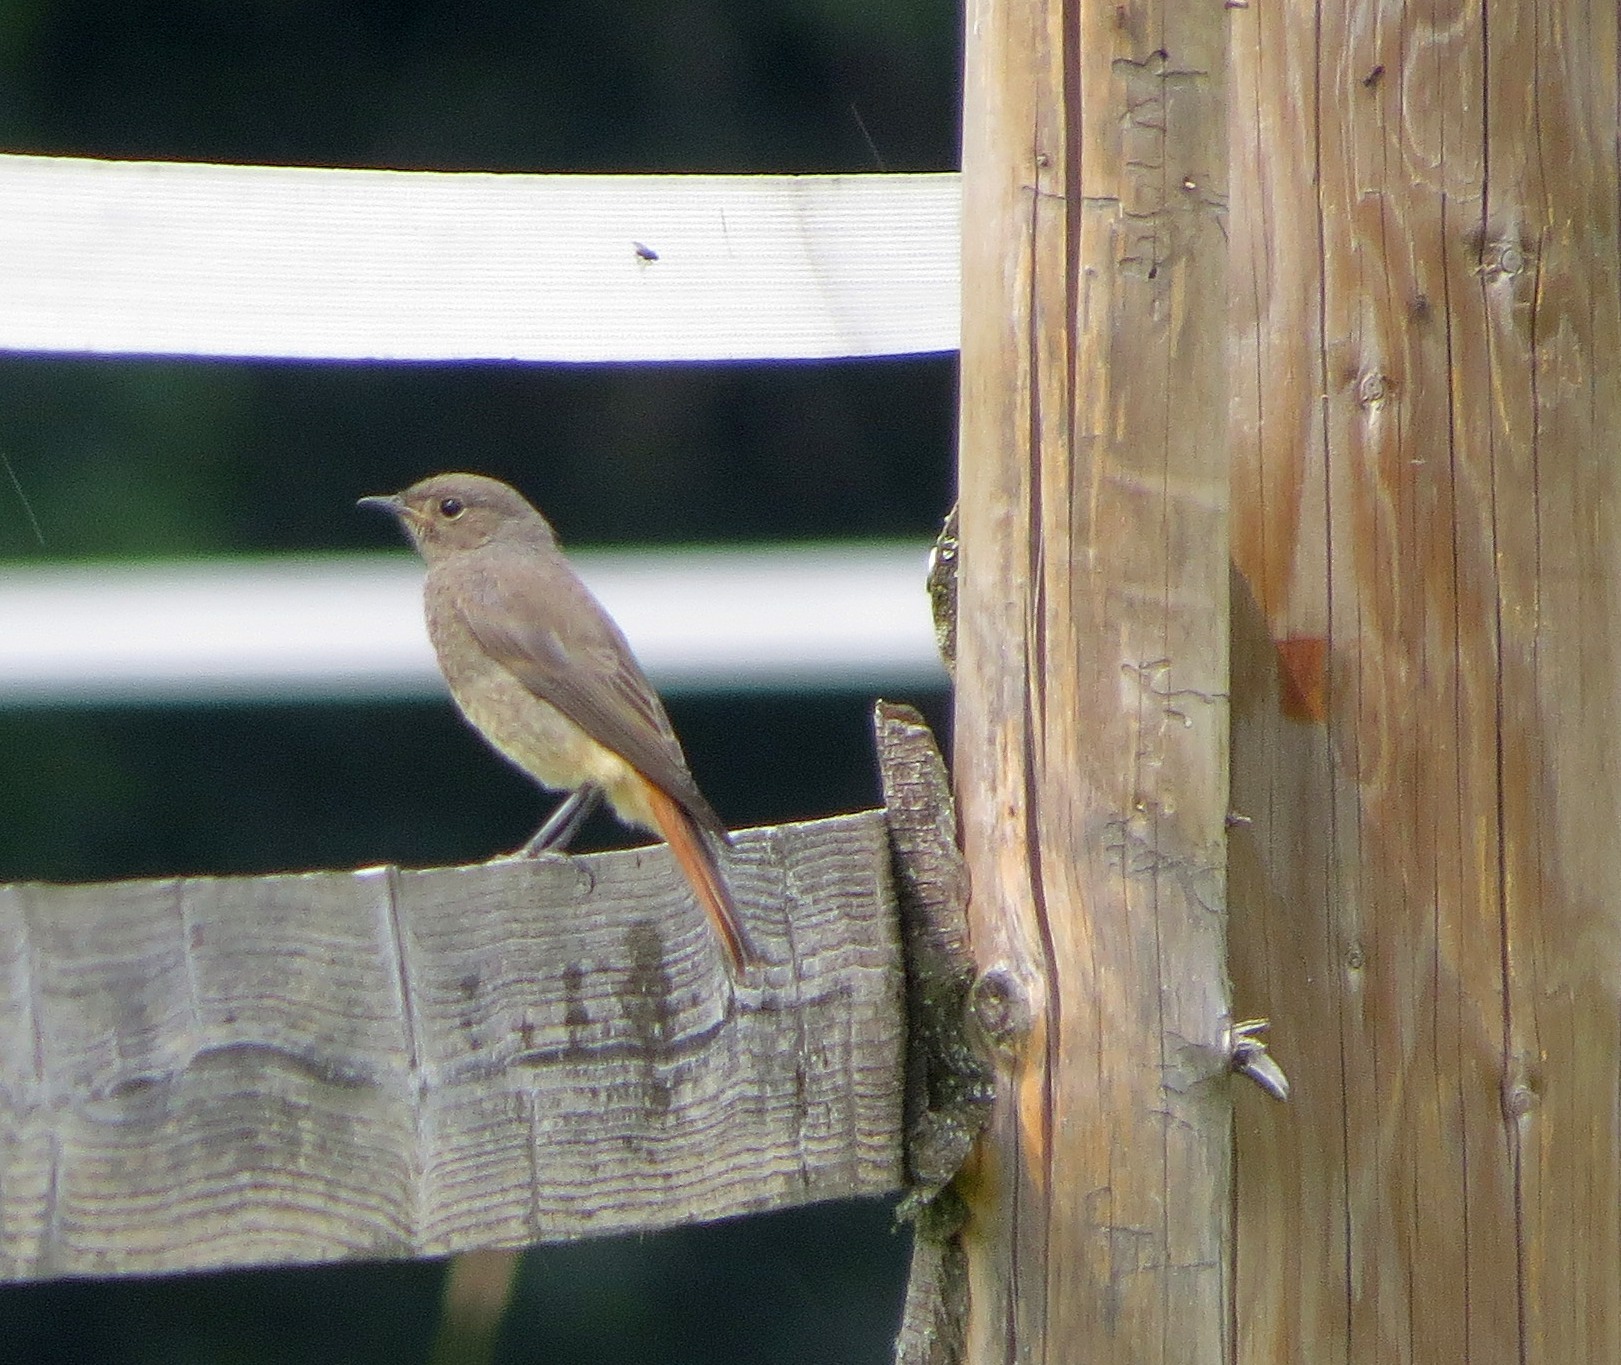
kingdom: Animalia
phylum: Chordata
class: Aves
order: Passeriformes
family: Muscicapidae
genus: Phoenicurus
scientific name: Phoenicurus ochruros
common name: Black redstart
